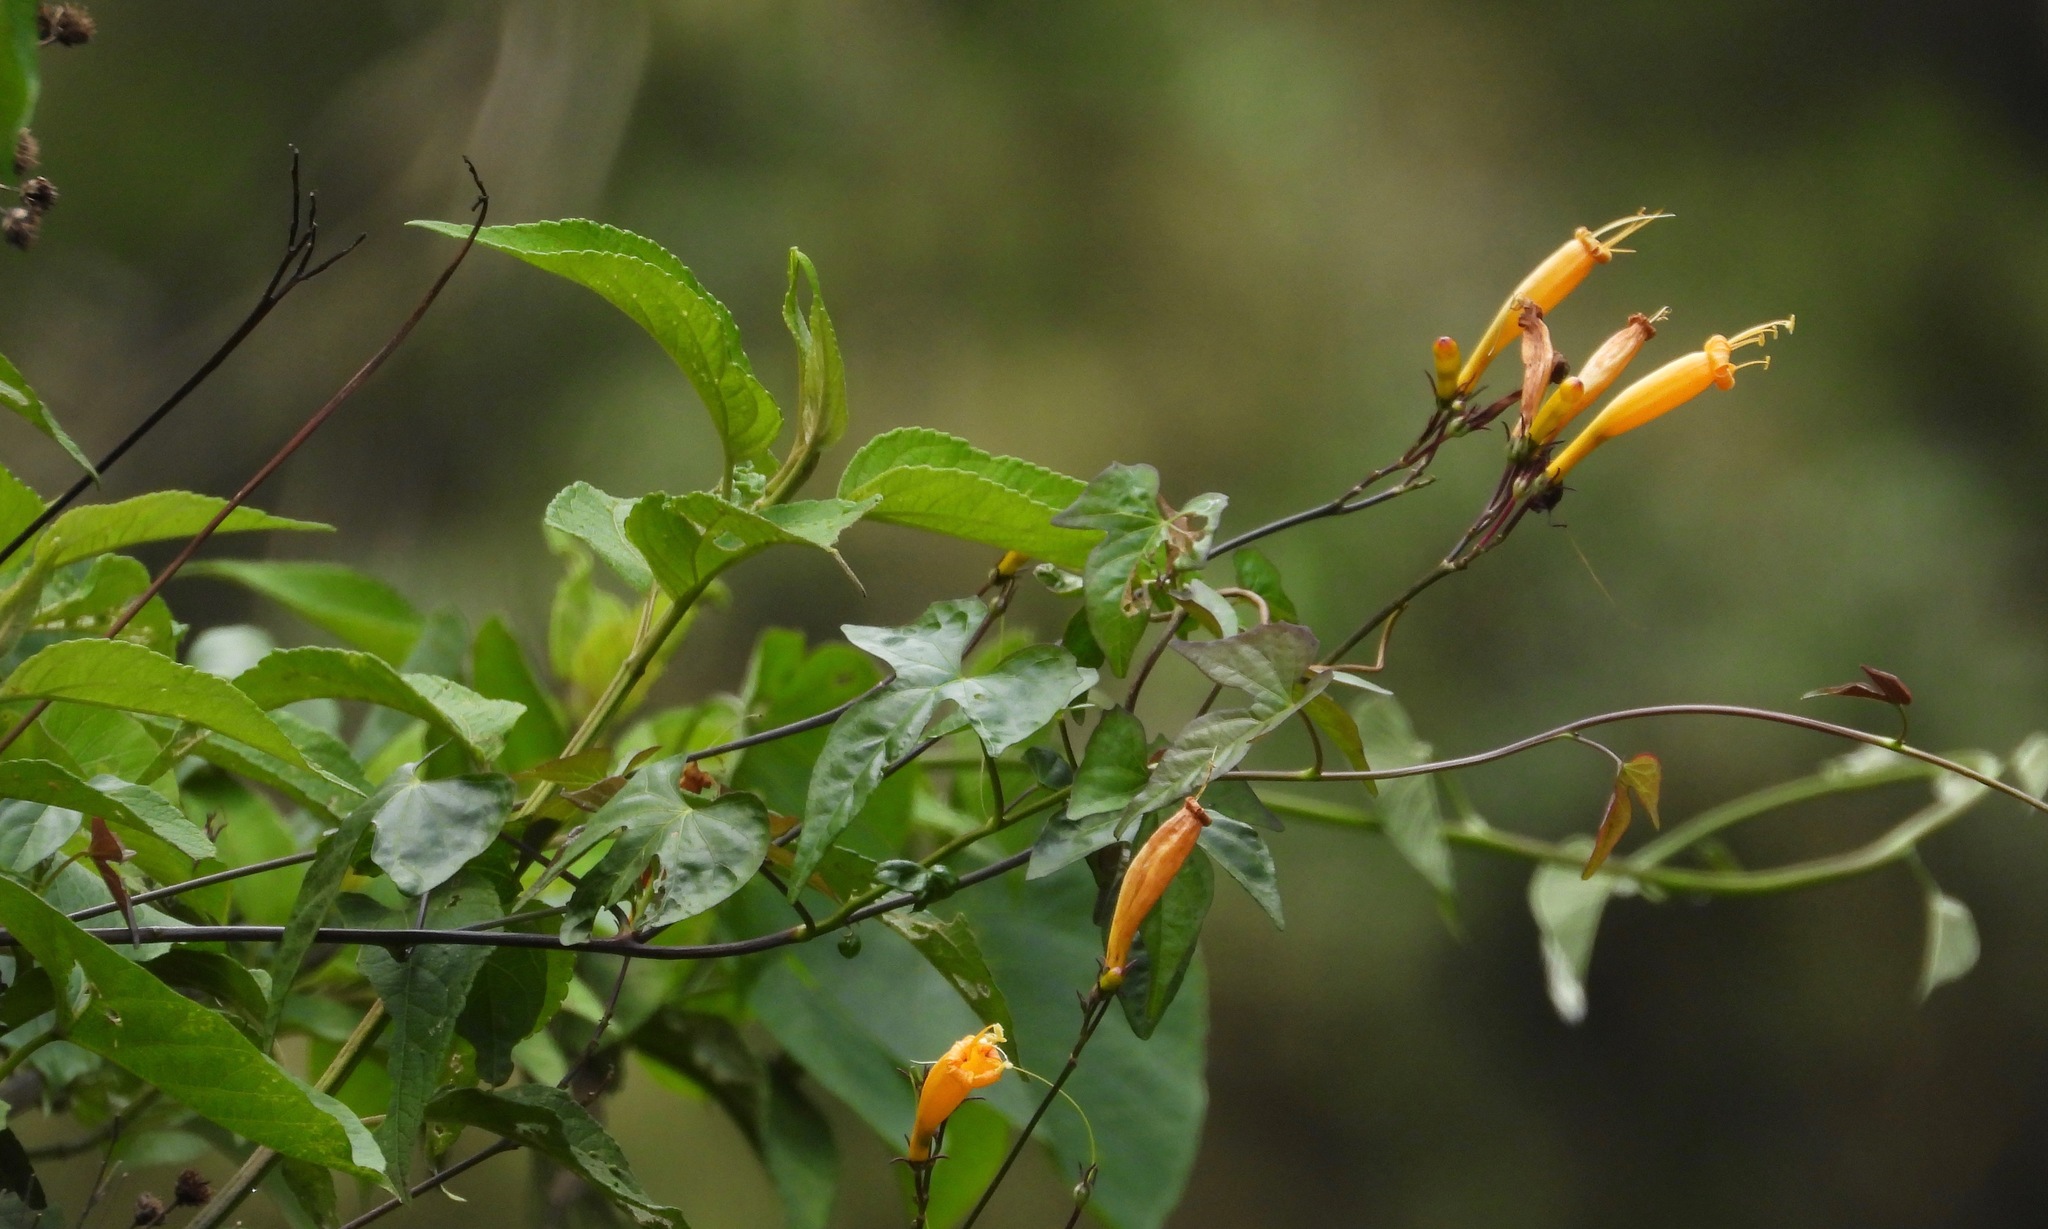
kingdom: Plantae
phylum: Tracheophyta
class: Magnoliopsida
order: Solanales
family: Convolvulaceae
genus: Ipomoea
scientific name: Ipomoea lutea
